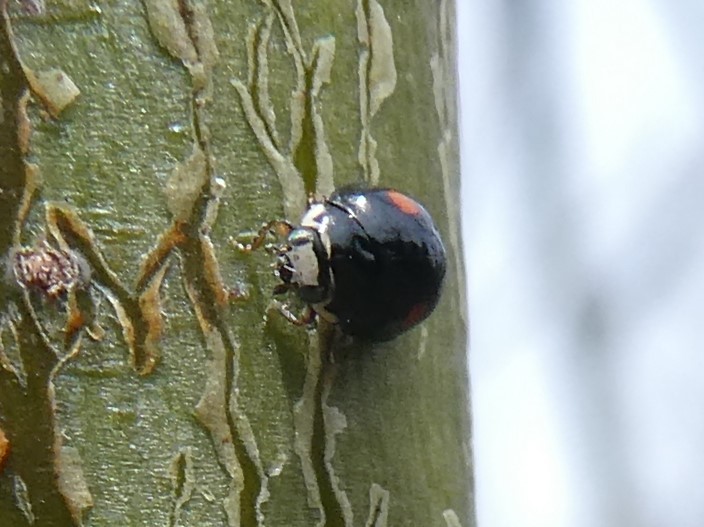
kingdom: Animalia
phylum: Arthropoda
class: Insecta
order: Coleoptera
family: Coccinellidae
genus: Hyperaspis
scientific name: Hyperaspis binotata
